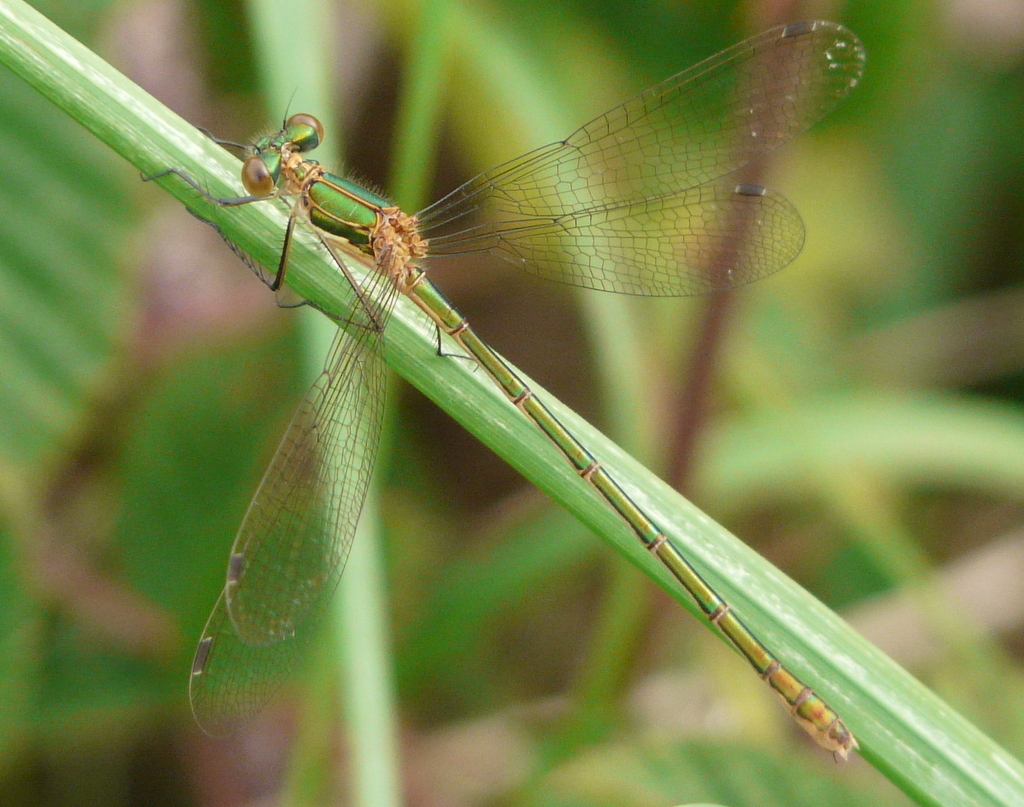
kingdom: Animalia
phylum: Arthropoda
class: Insecta
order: Odonata
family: Lestidae
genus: Lestes
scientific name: Lestes sponsa
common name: Common spreadwing
